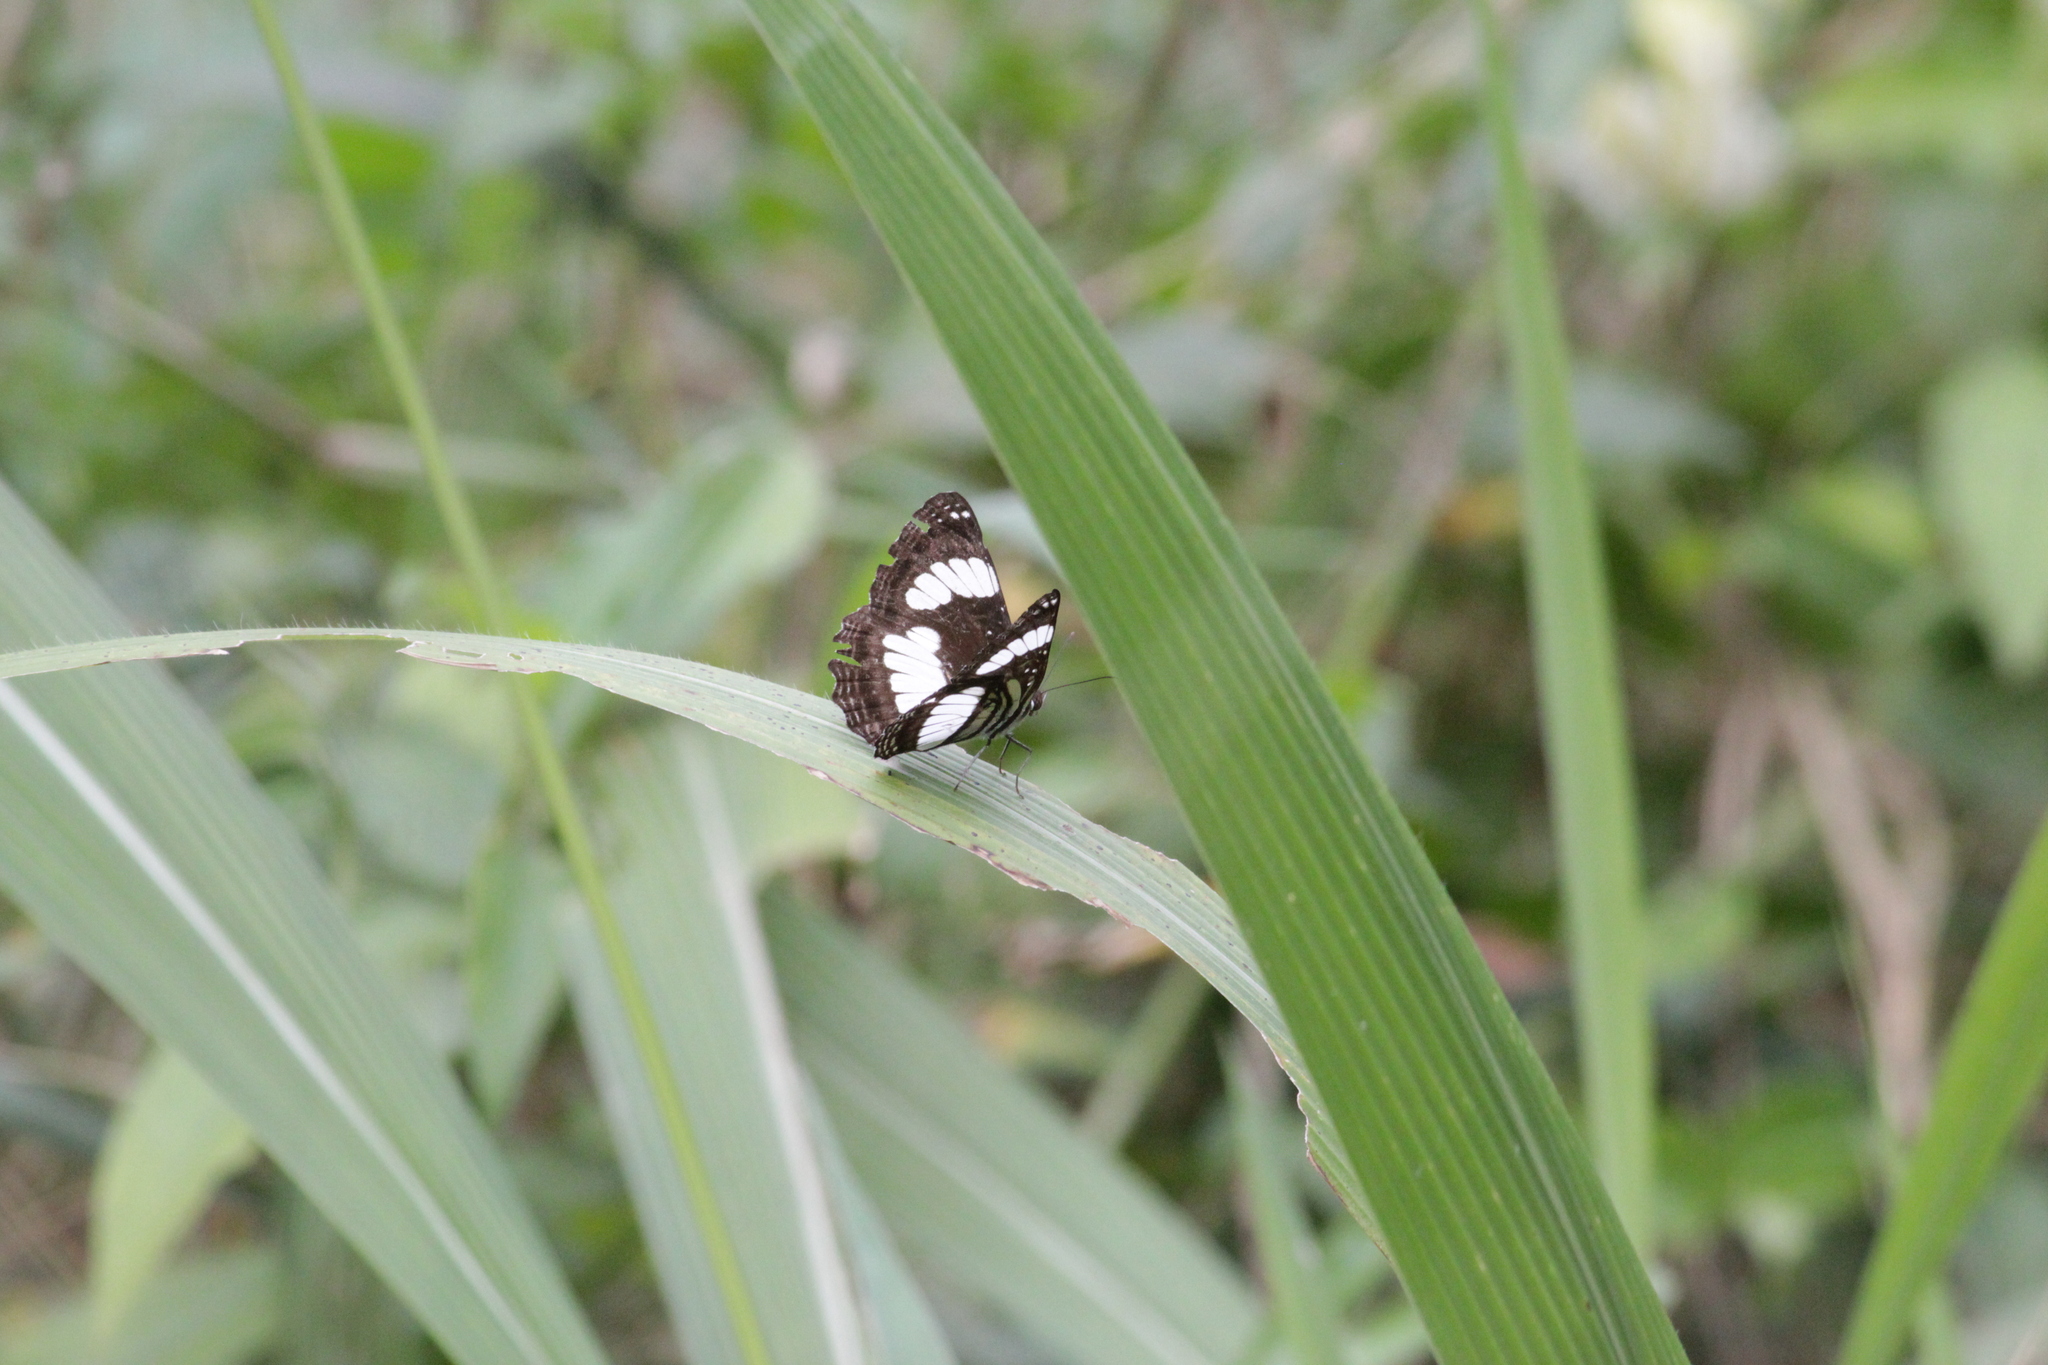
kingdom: Animalia
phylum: Arthropoda
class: Insecta
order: Lepidoptera
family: Nymphalidae
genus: Neptis
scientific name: Neptis laeta
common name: Common barred sailor
